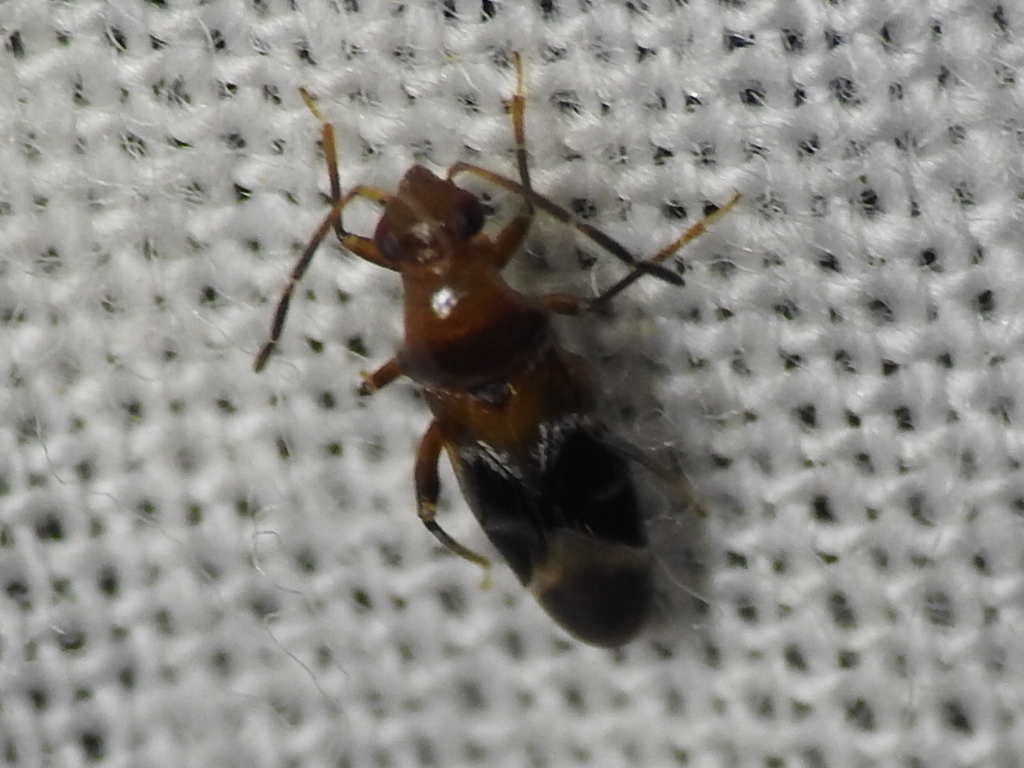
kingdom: Animalia
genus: Pilophoropsidea
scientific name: Pilophoropsidea camela
